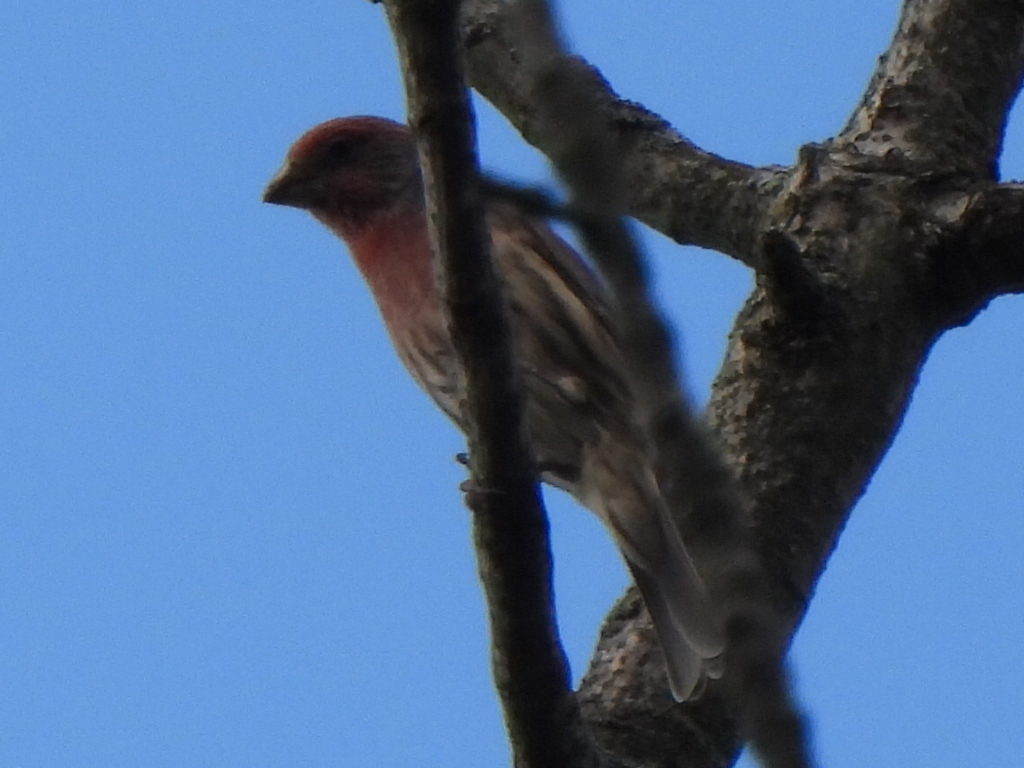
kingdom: Animalia
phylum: Chordata
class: Aves
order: Passeriformes
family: Fringillidae
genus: Haemorhous
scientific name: Haemorhous mexicanus
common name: House finch
